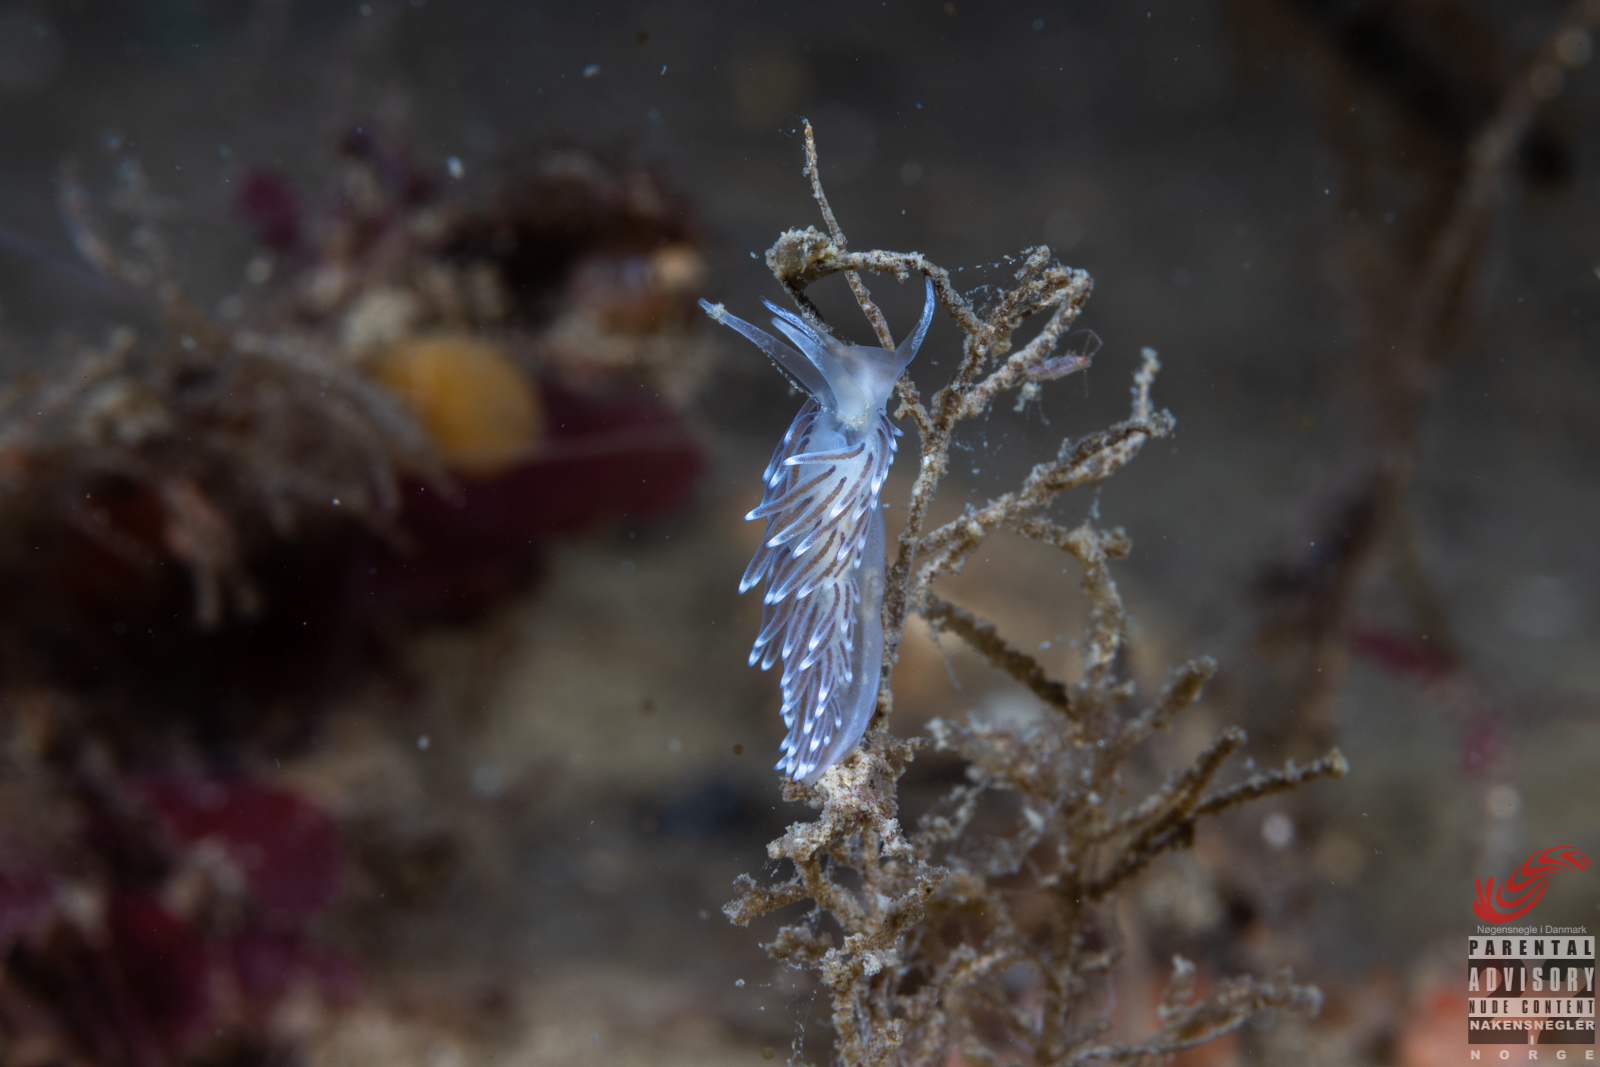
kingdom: Animalia
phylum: Mollusca
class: Gastropoda
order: Nudibranchia
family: Cuthonellidae
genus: Cuthonella
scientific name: Cuthonella concinna
